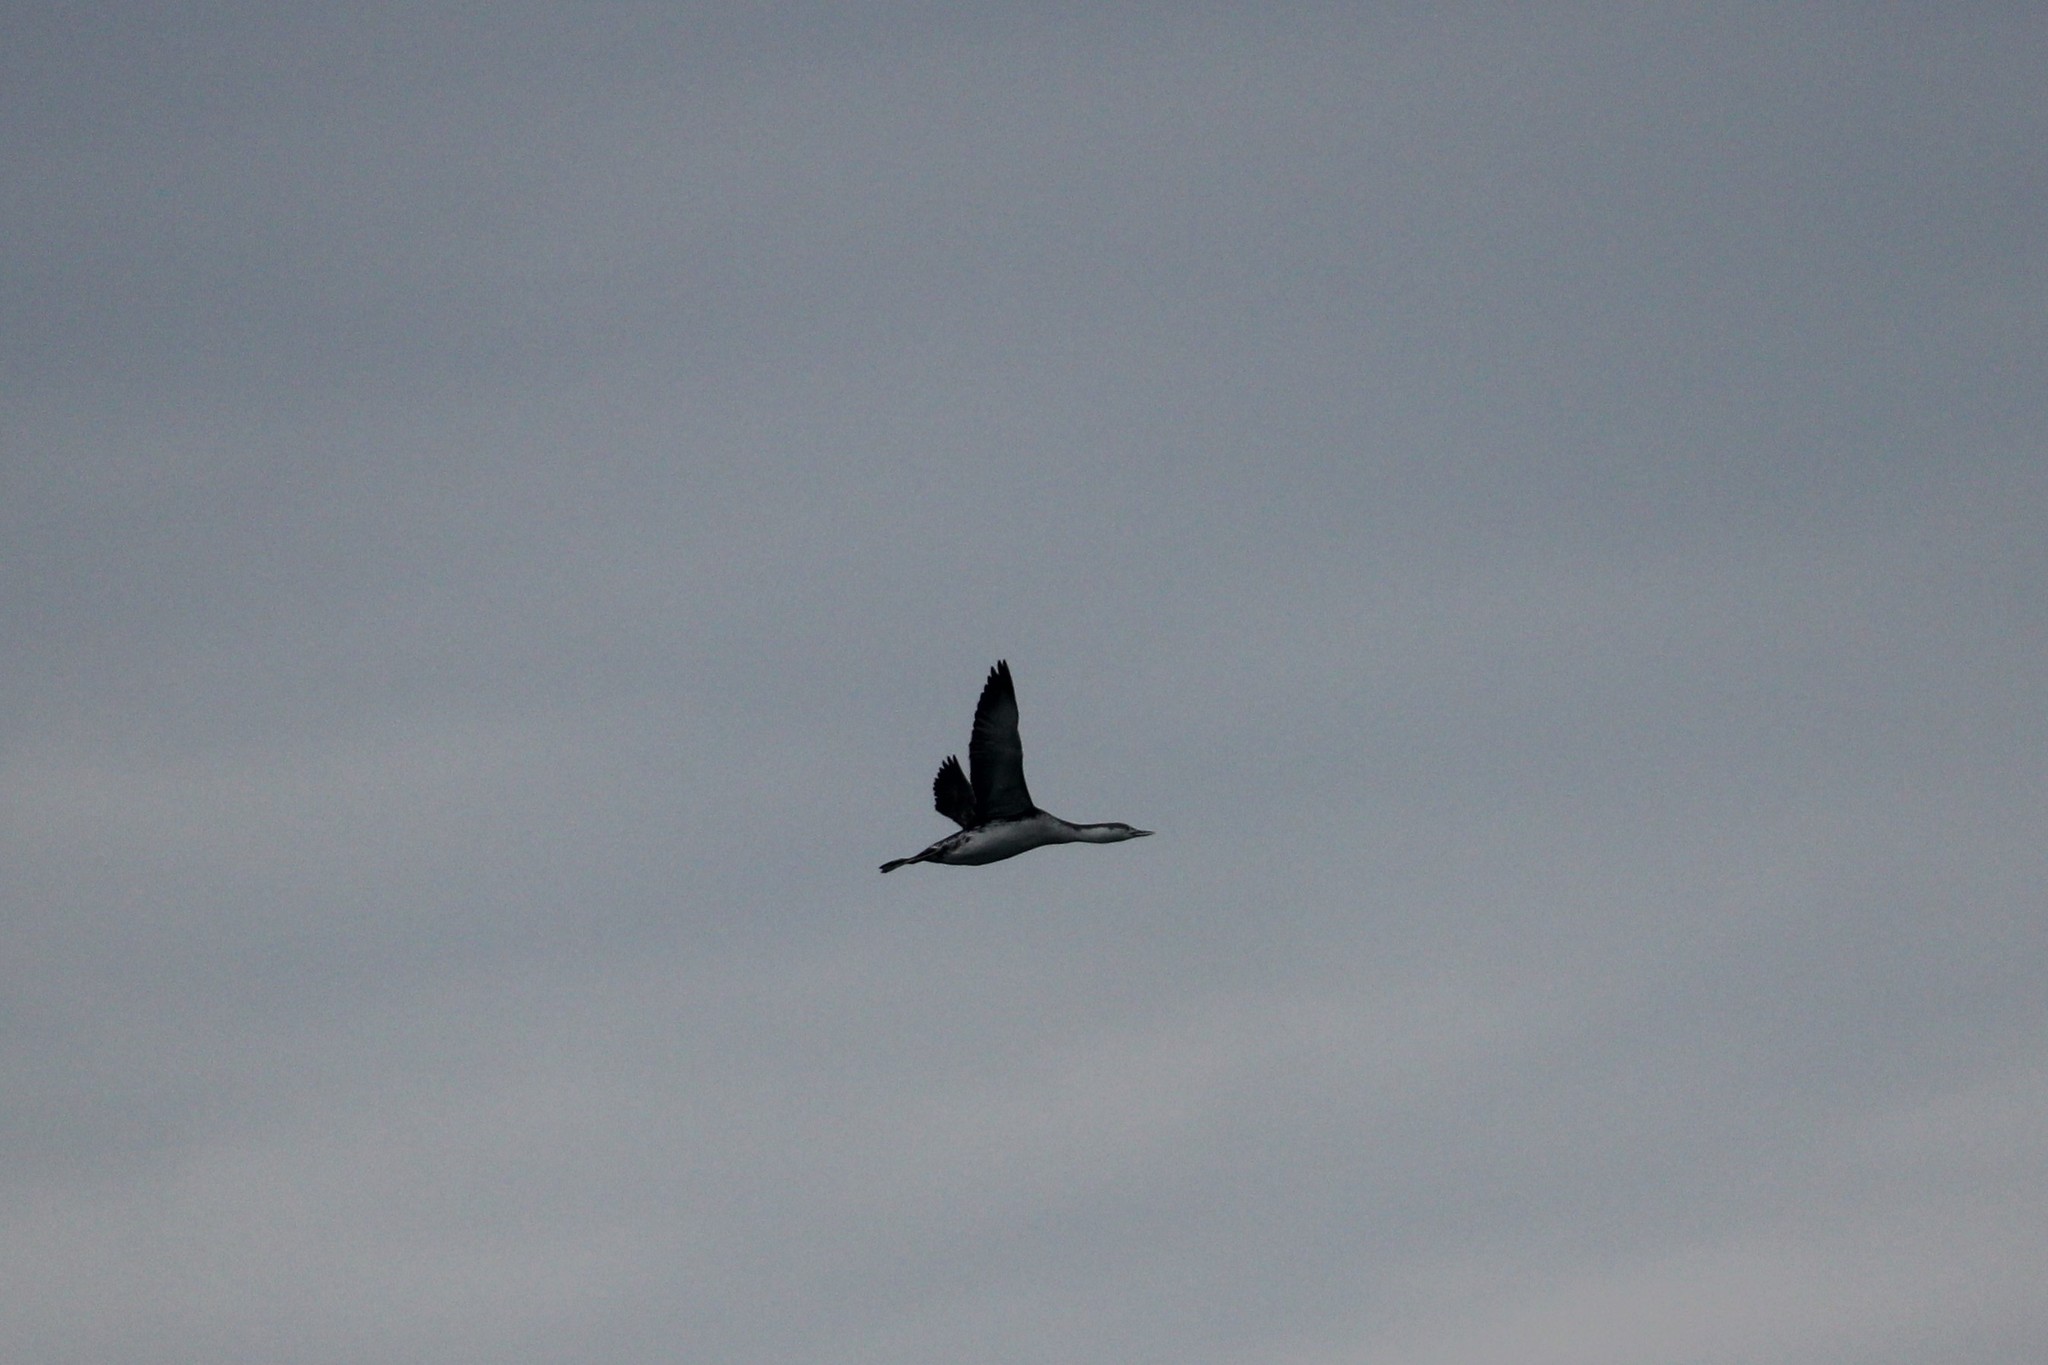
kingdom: Animalia
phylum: Chordata
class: Aves
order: Gaviiformes
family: Gaviidae
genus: Gavia
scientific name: Gavia stellata
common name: Red-throated loon
